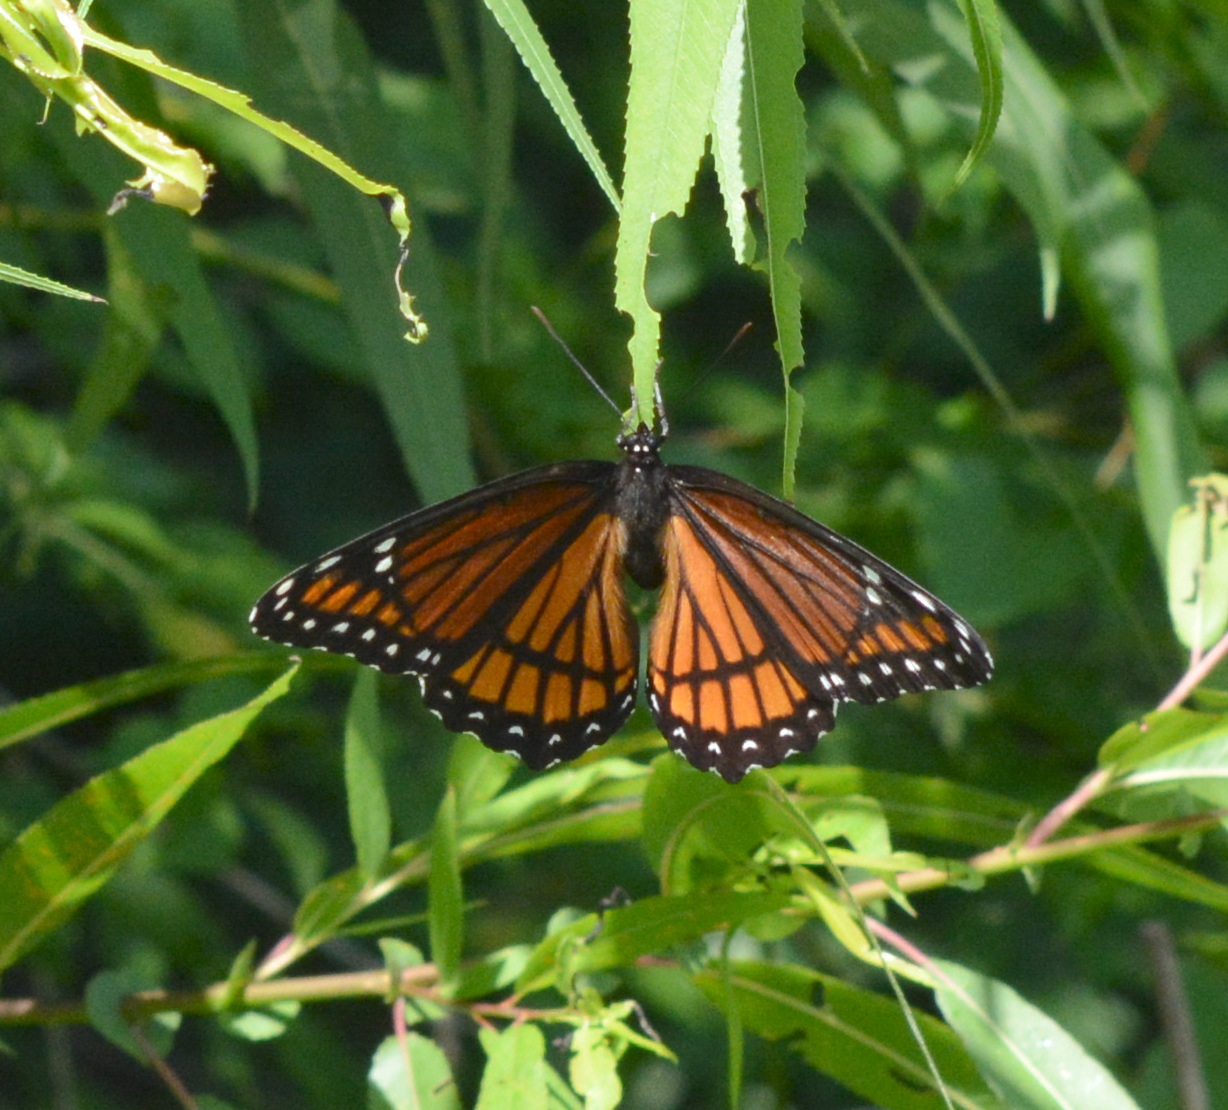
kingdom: Animalia
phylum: Arthropoda
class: Insecta
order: Lepidoptera
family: Nymphalidae
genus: Limenitis
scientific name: Limenitis archippus
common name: Viceroy
